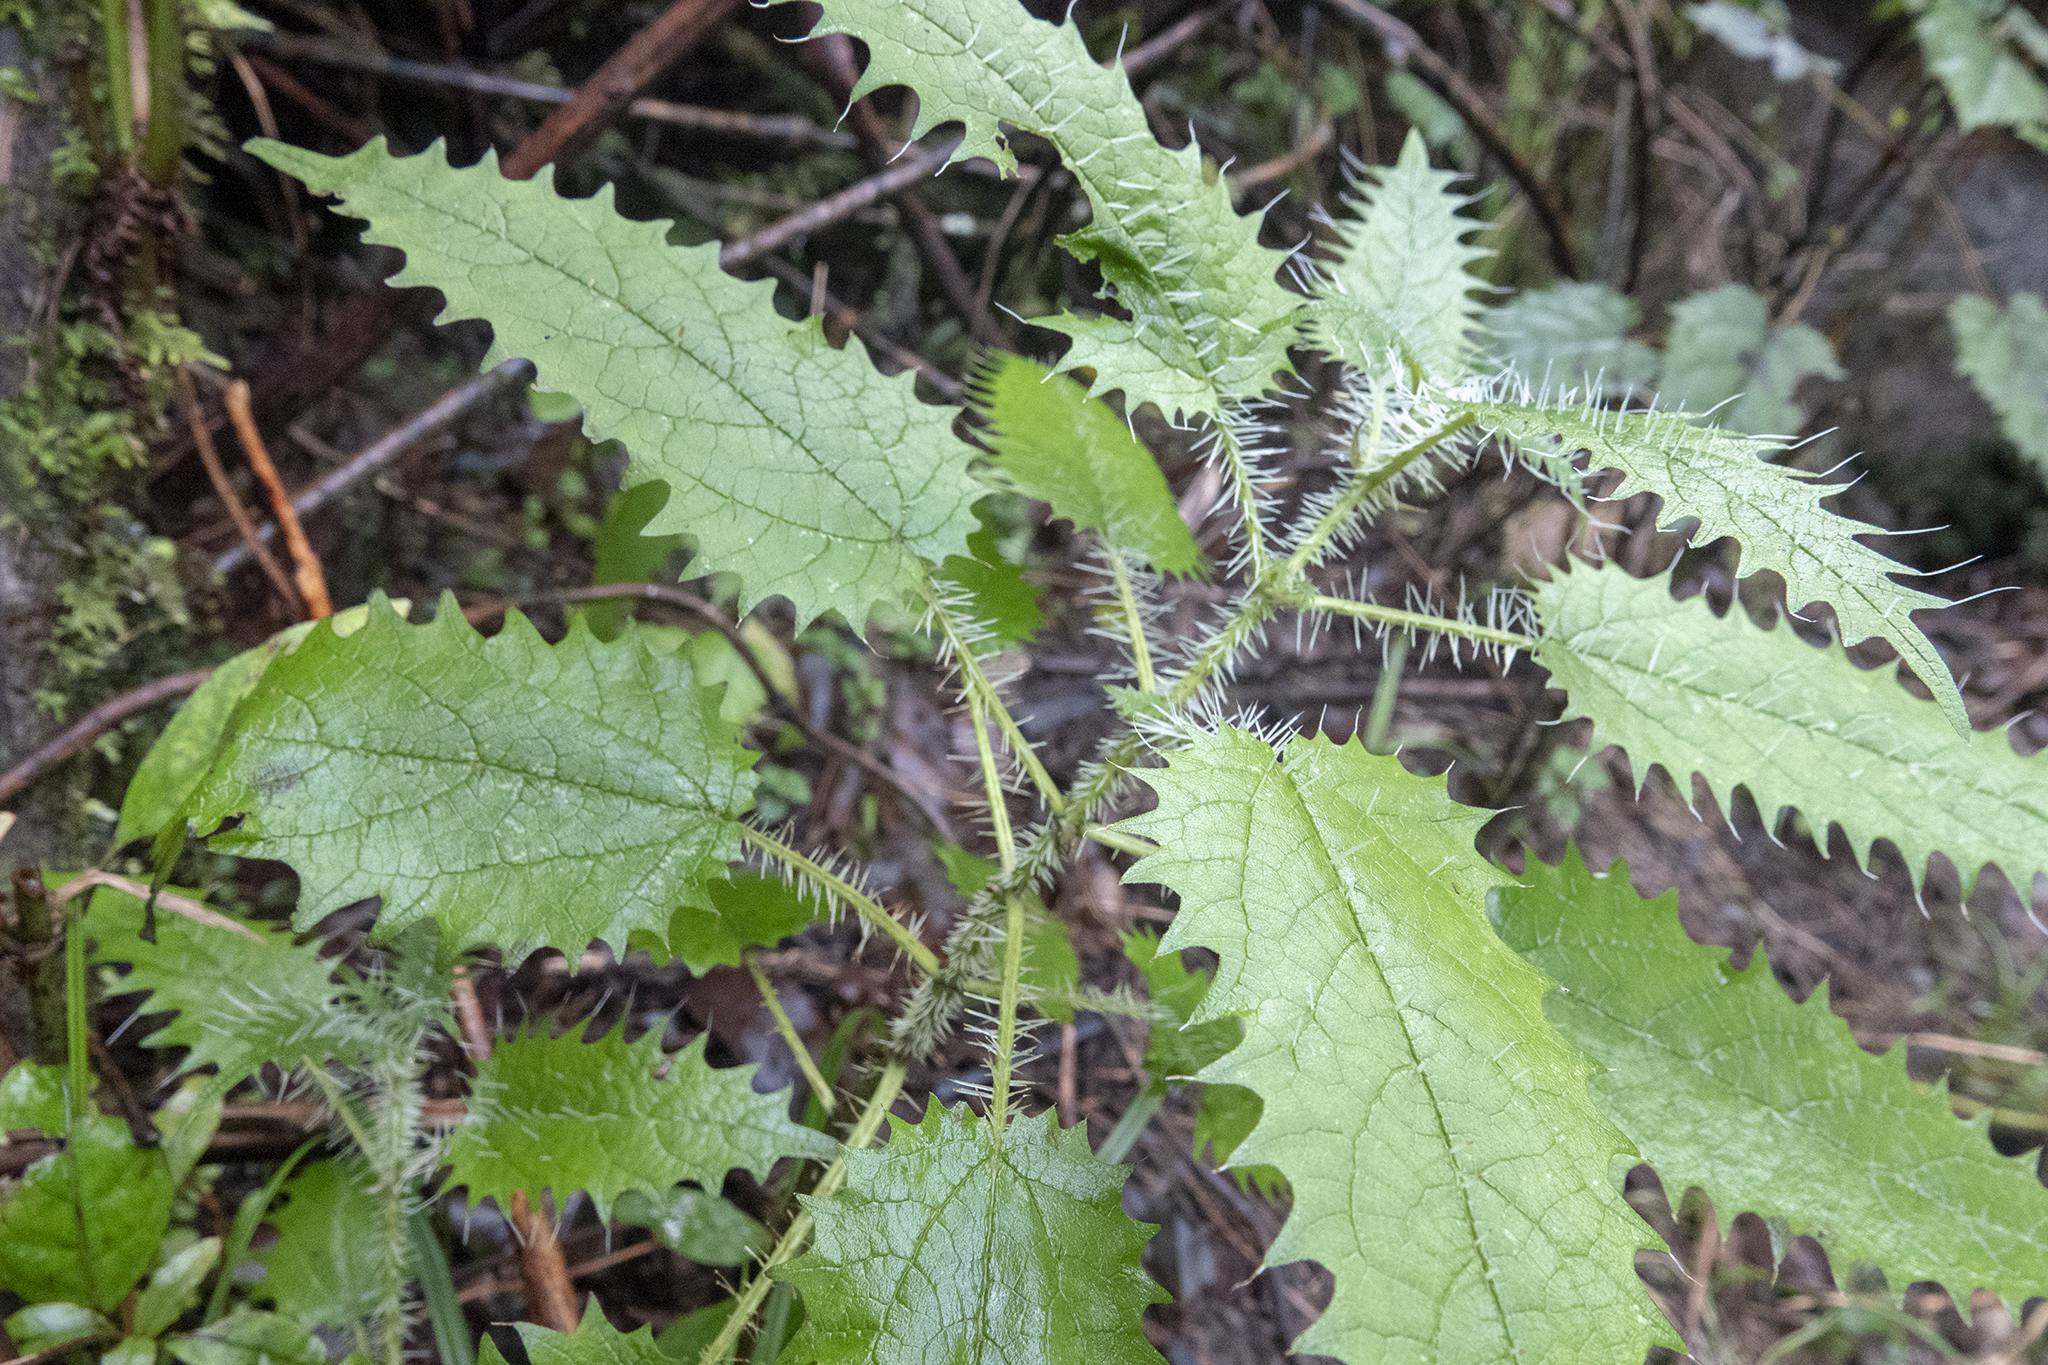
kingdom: Plantae
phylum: Tracheophyta
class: Magnoliopsida
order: Rosales
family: Urticaceae
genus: Urtica
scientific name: Urtica ferox
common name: Tree nettle
